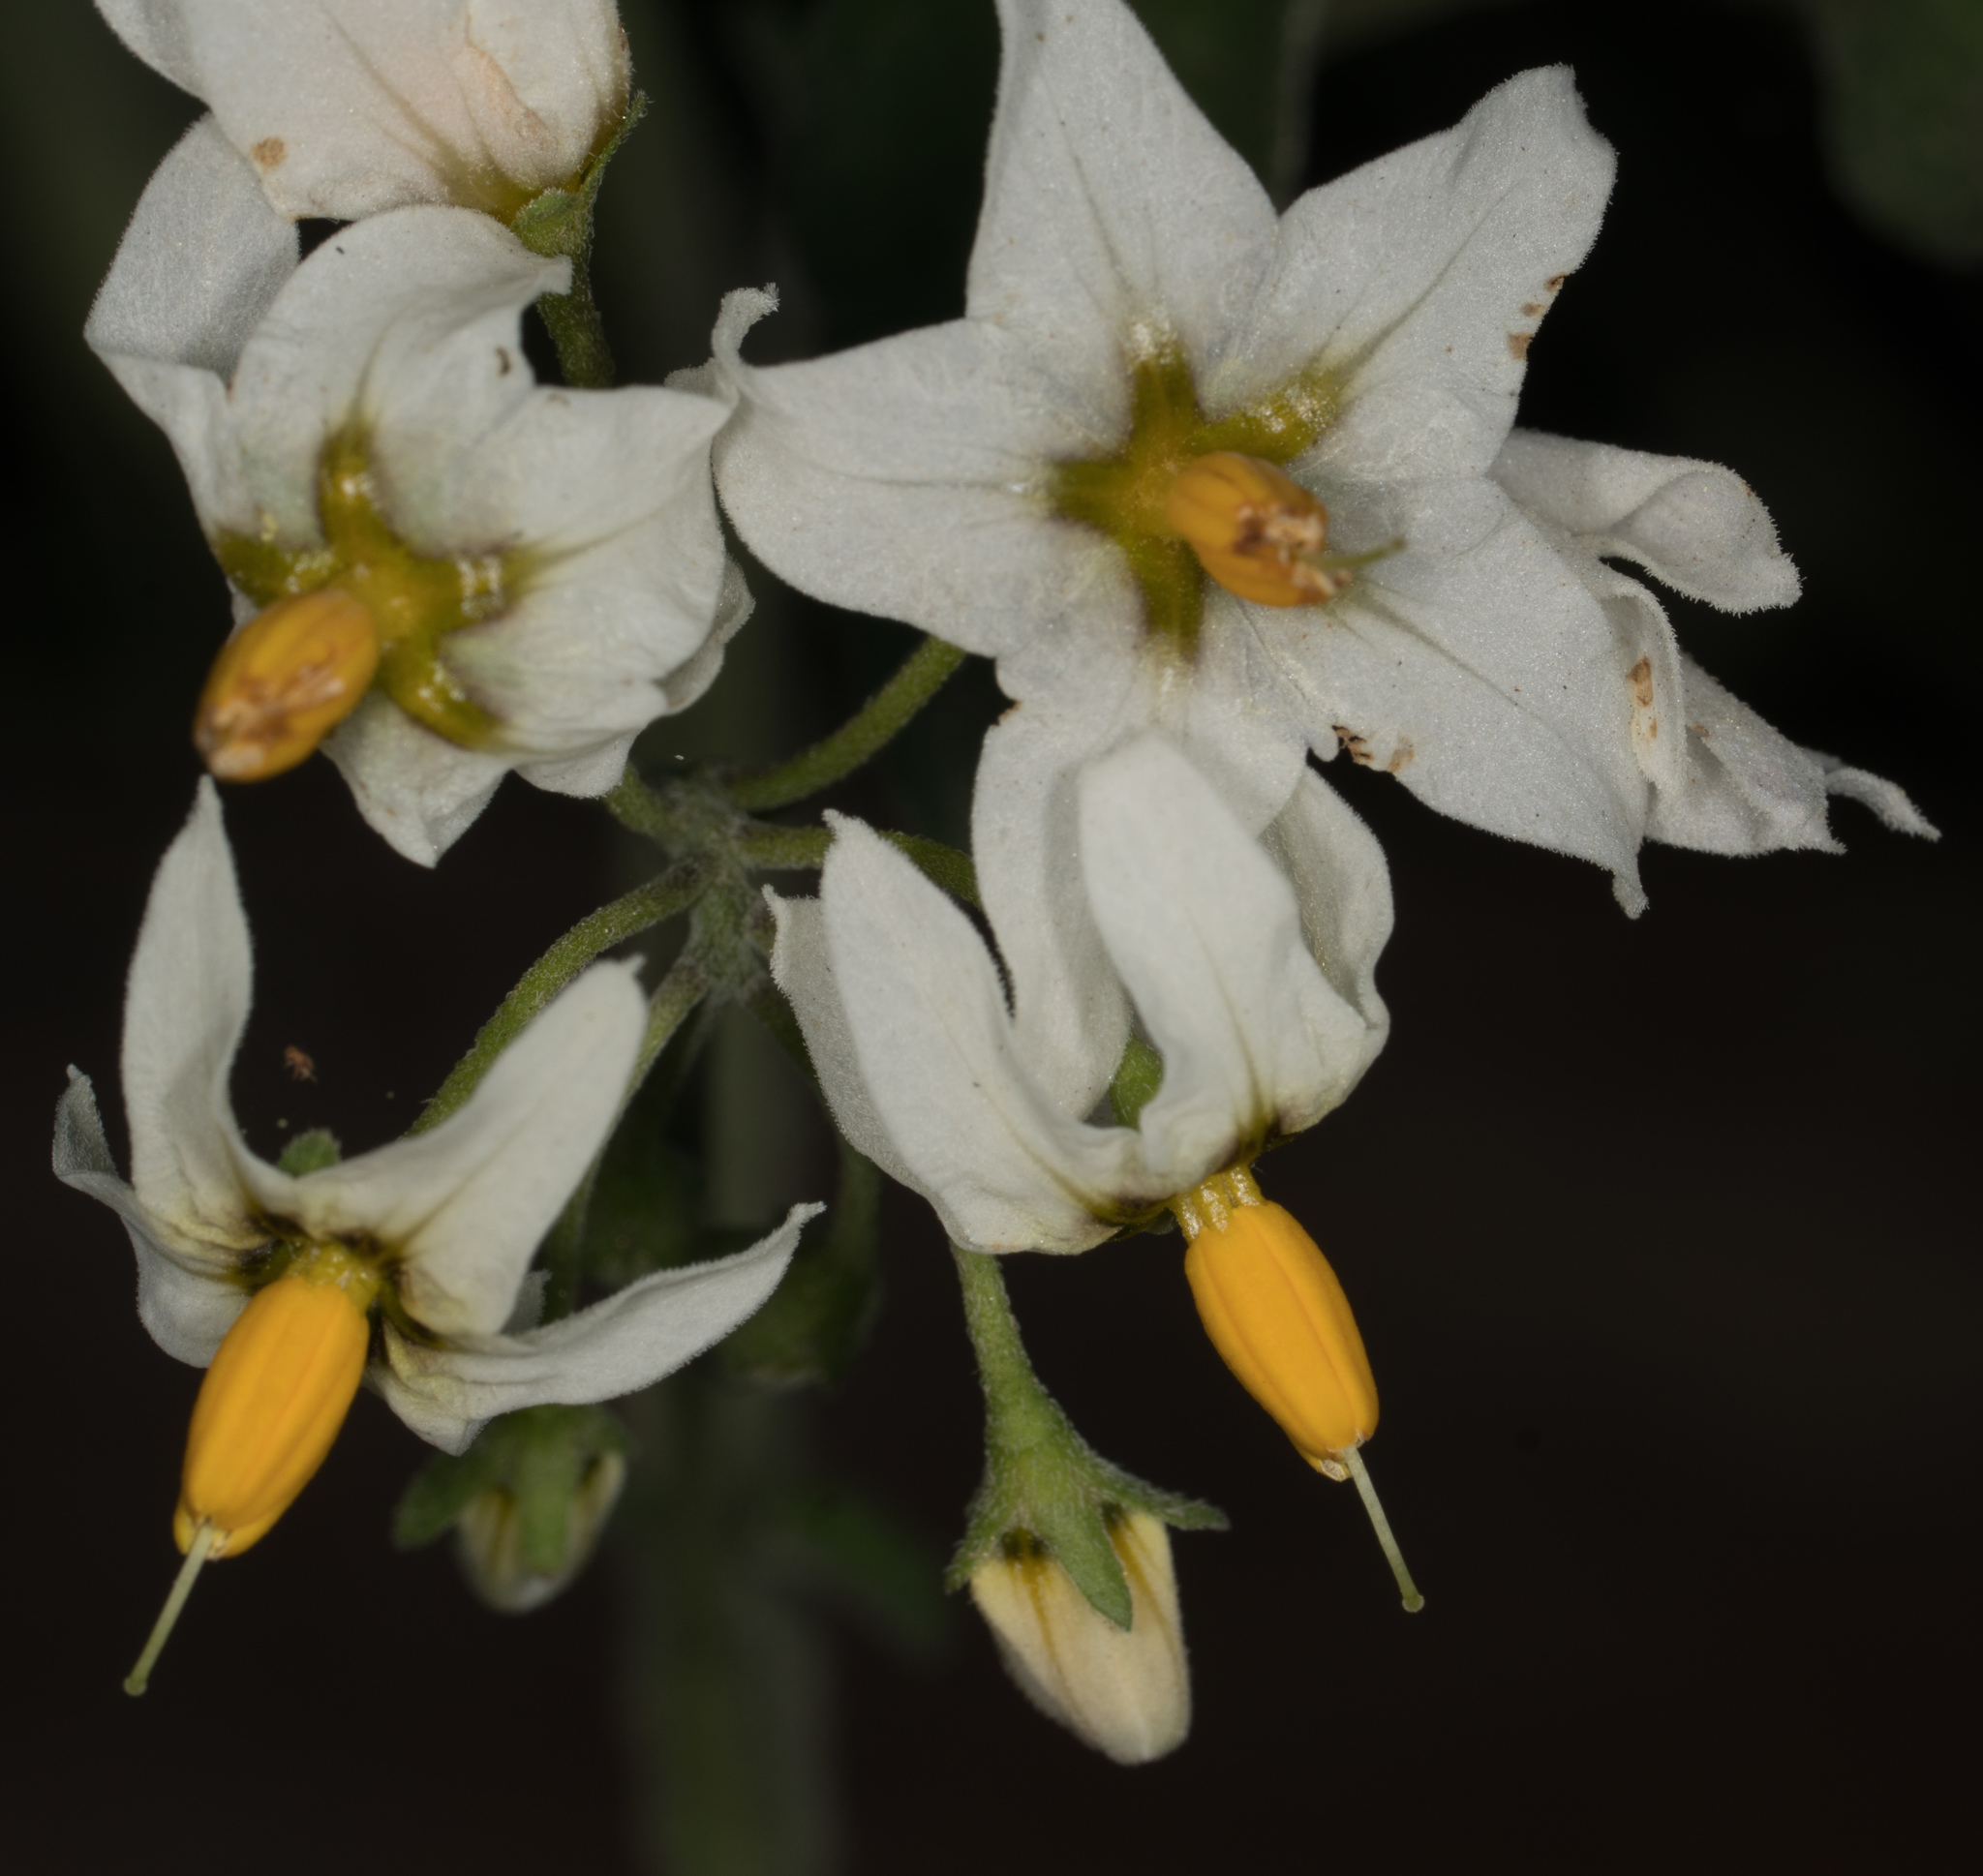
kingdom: Plantae
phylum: Tracheophyta
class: Magnoliopsida
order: Solanales
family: Solanaceae
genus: Solanum
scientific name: Solanum douglasii
